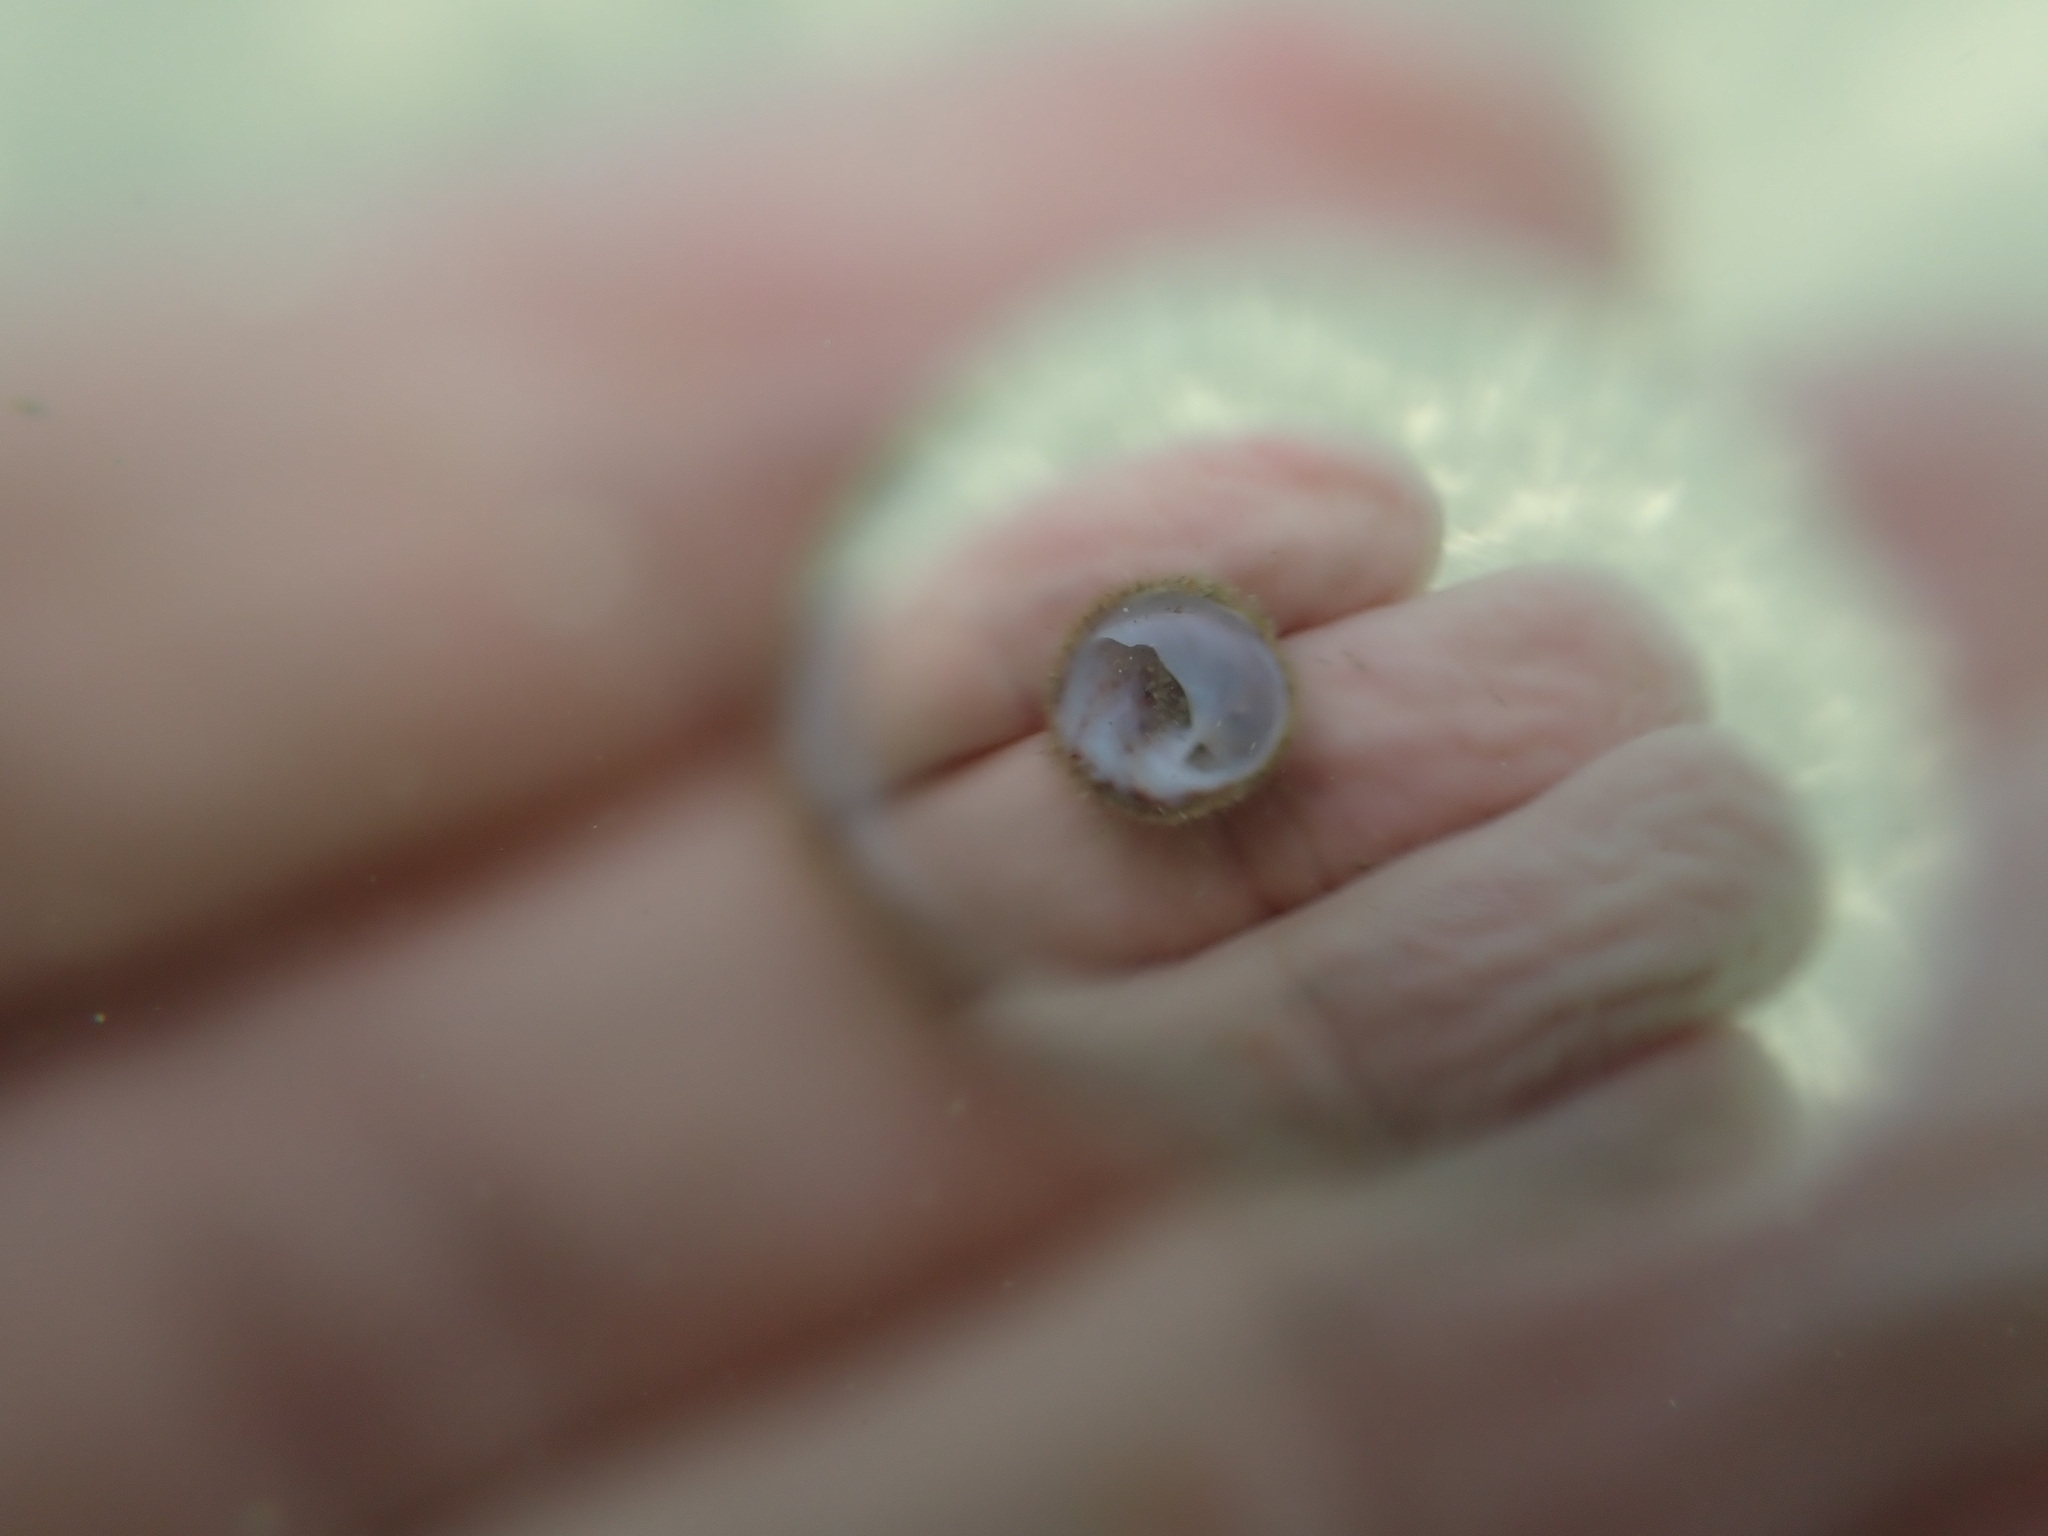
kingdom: Animalia
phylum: Mollusca
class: Gastropoda
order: Littorinimorpha
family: Calyptraeidae
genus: Sigapatella
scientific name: Sigapatella novaezelandiae
